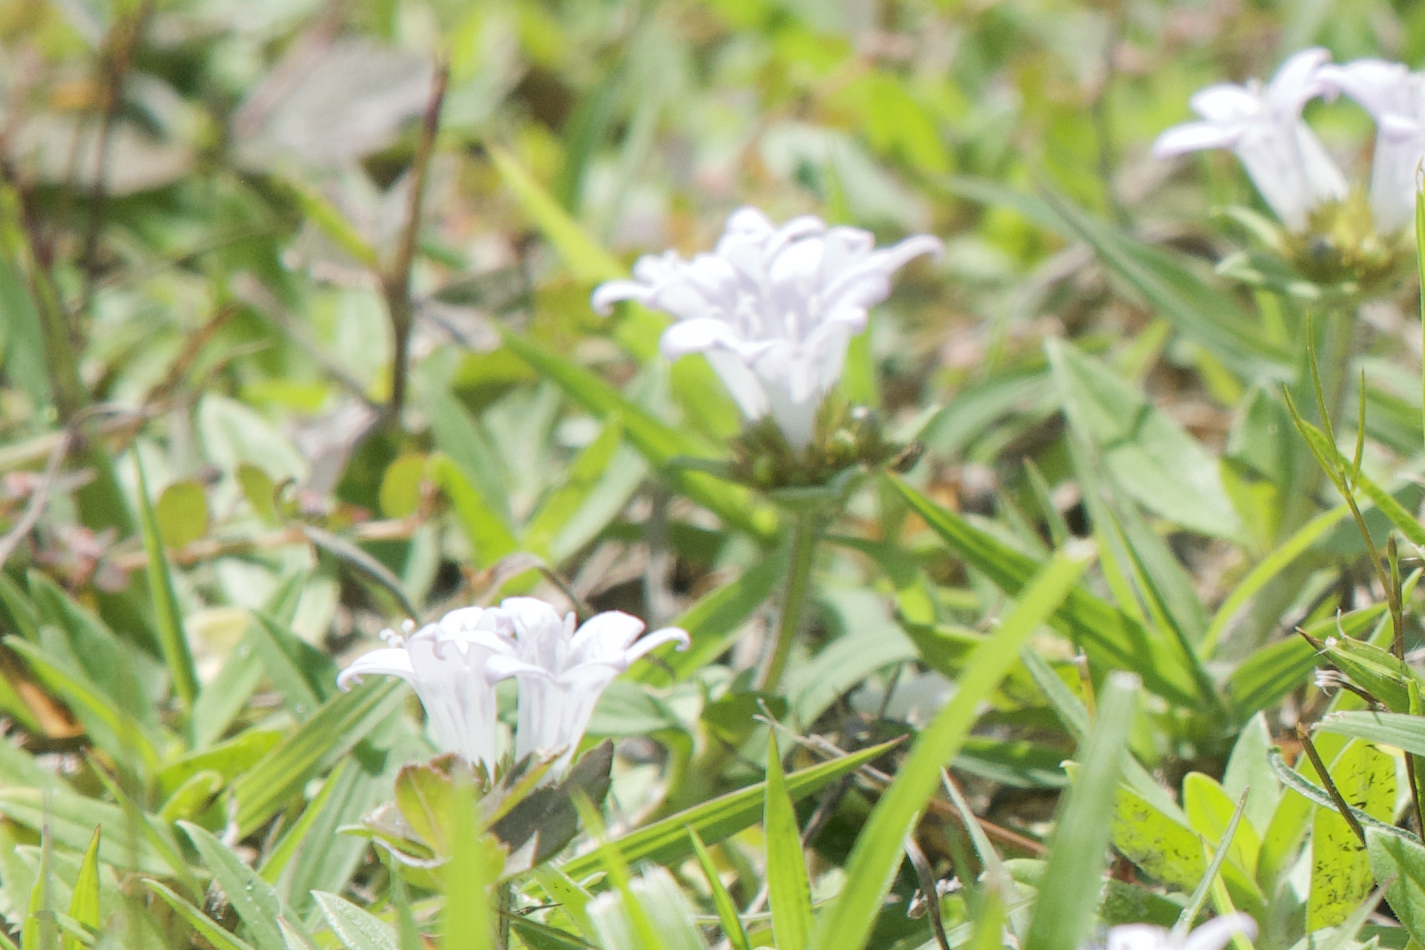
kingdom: Plantae
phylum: Tracheophyta
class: Magnoliopsida
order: Gentianales
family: Rubiaceae
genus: Richardia
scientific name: Richardia grandiflora
